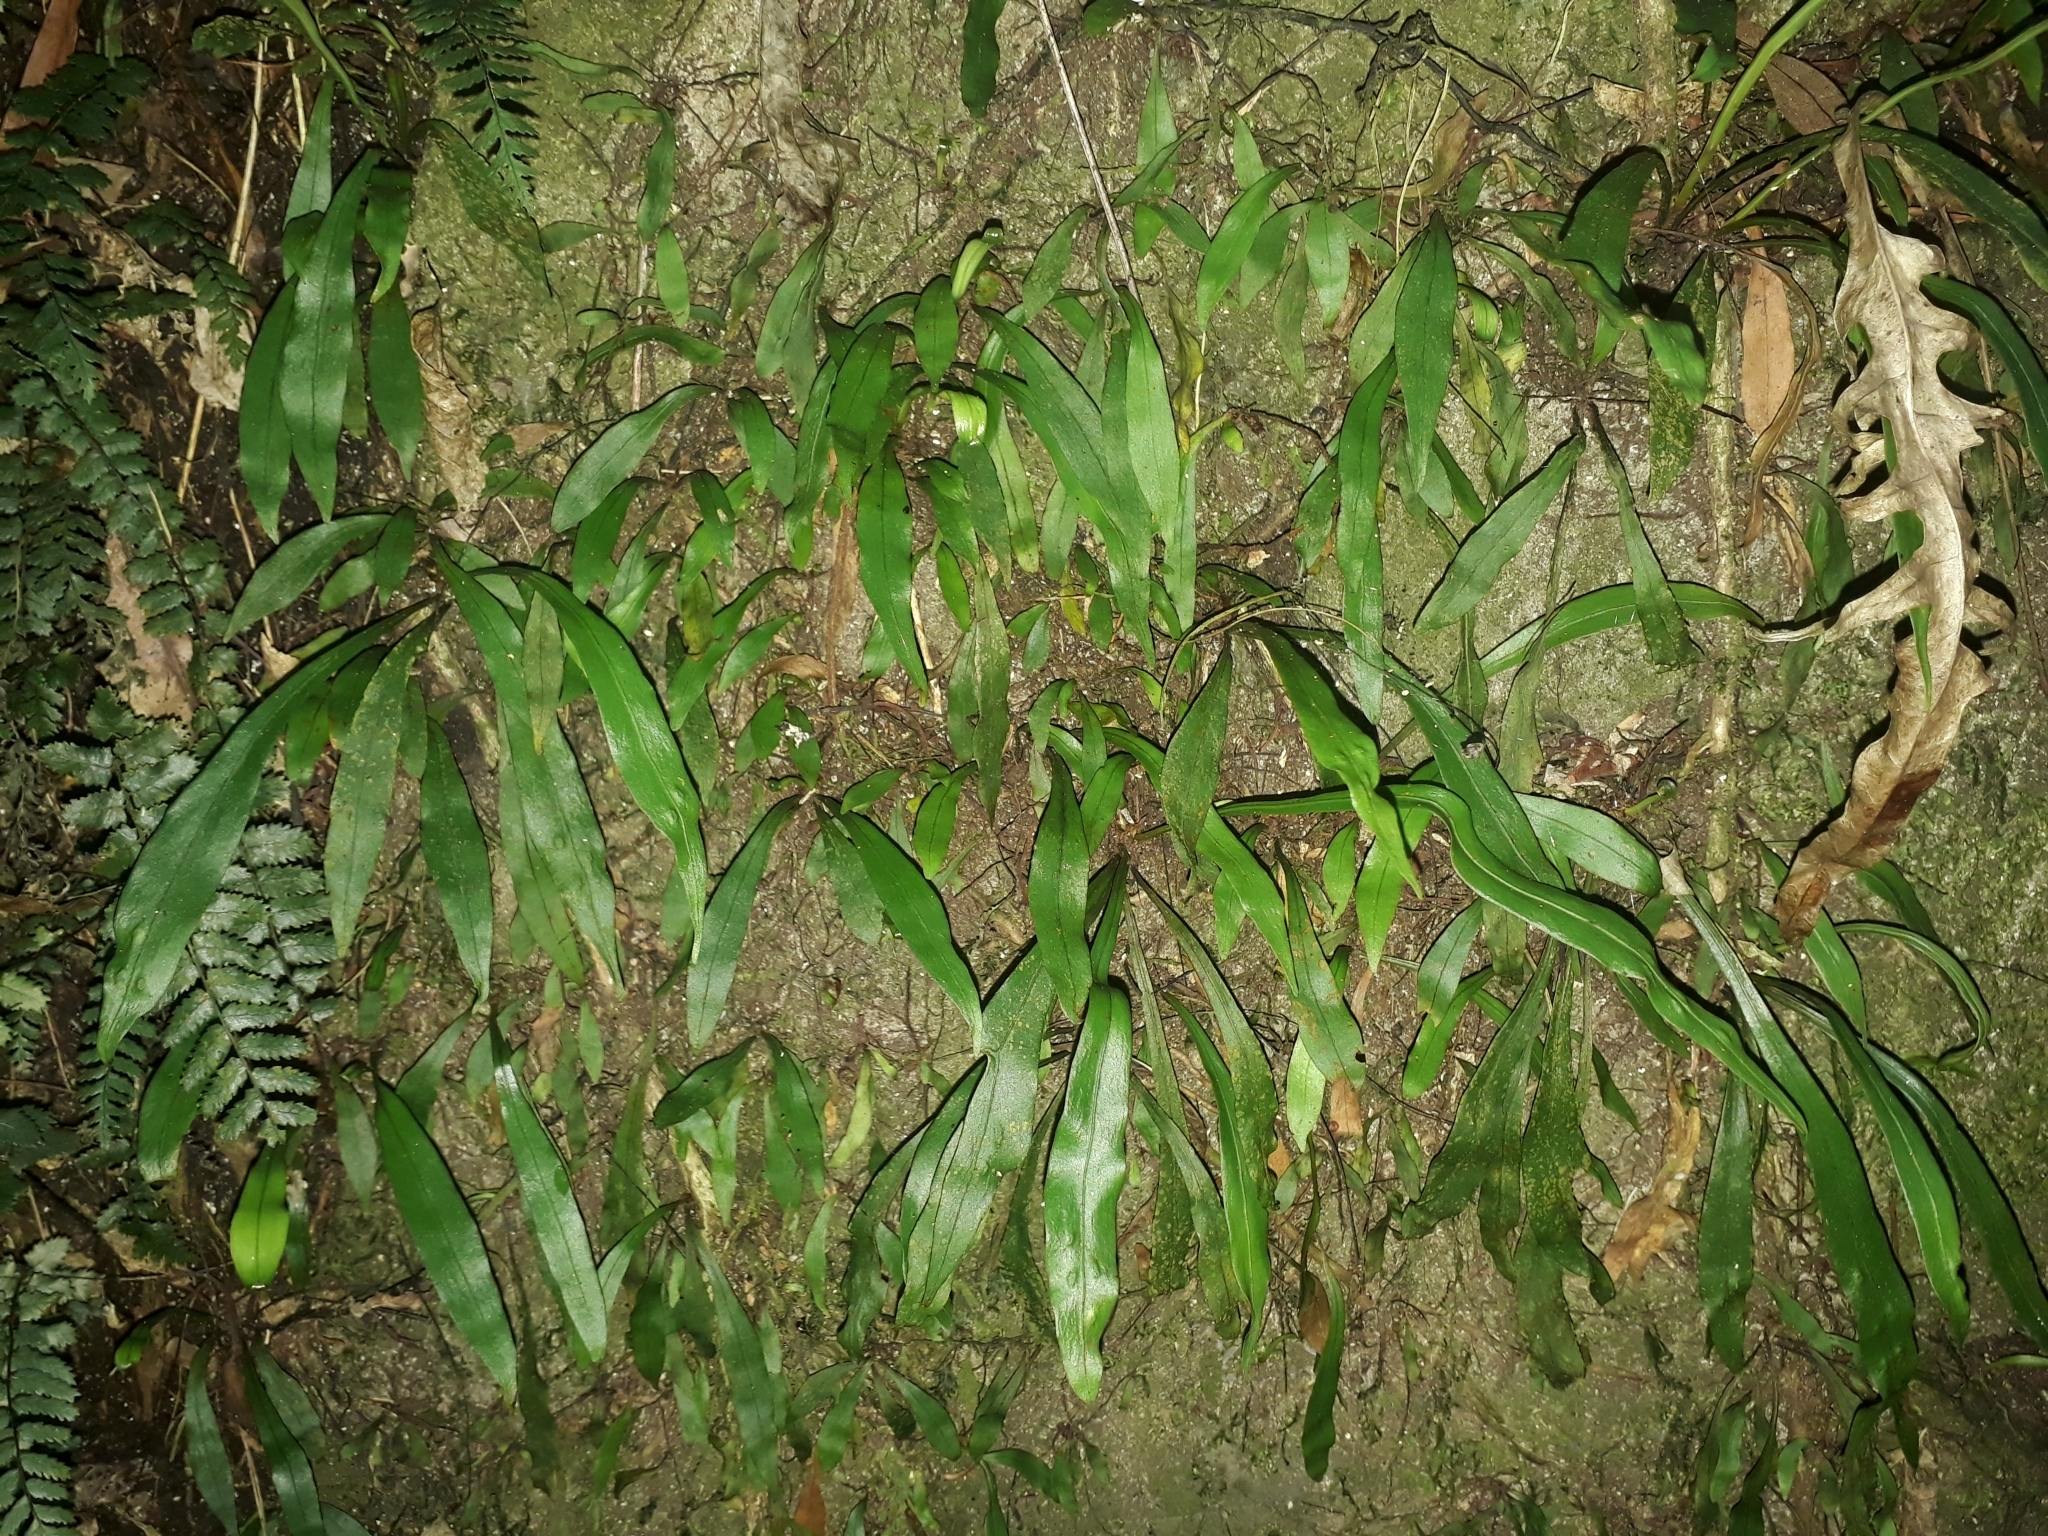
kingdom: Plantae
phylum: Tracheophyta
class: Polypodiopsida
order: Polypodiales
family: Polypodiaceae
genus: Loxogramme
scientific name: Loxogramme dictyopteris
